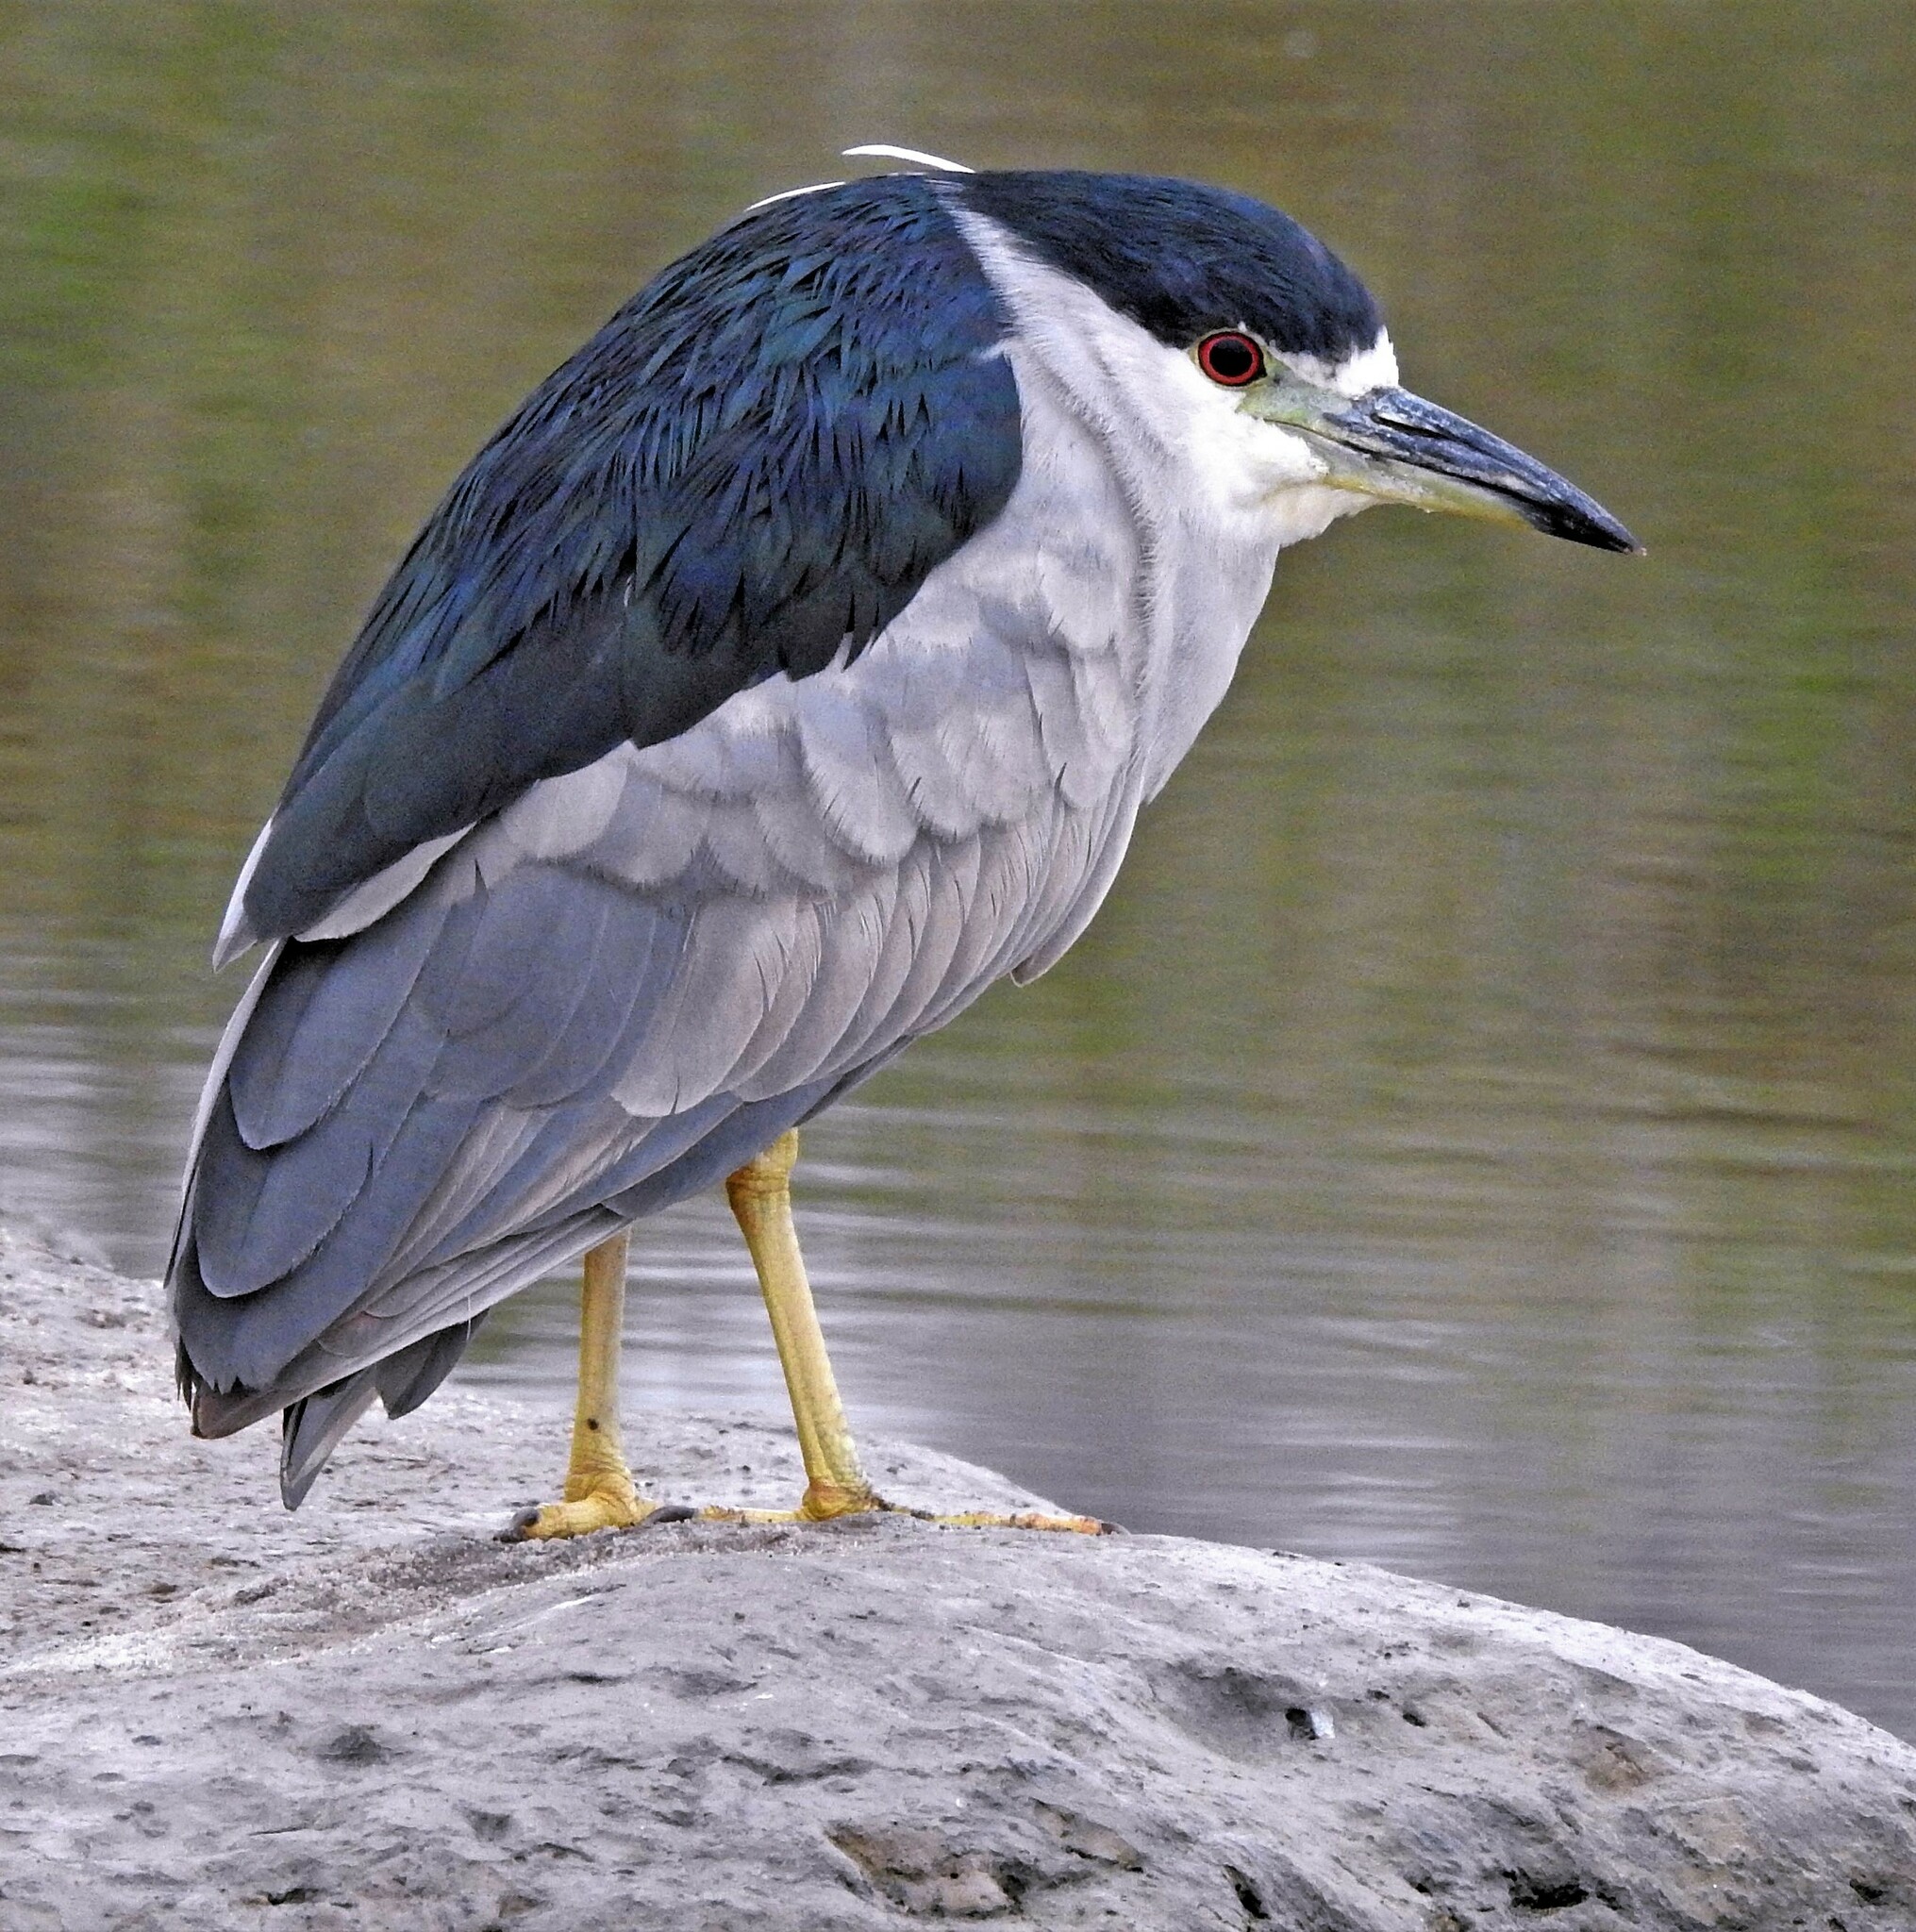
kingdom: Animalia
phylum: Chordata
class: Aves
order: Pelecaniformes
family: Ardeidae
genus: Nycticorax
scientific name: Nycticorax nycticorax
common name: Black-crowned night heron
